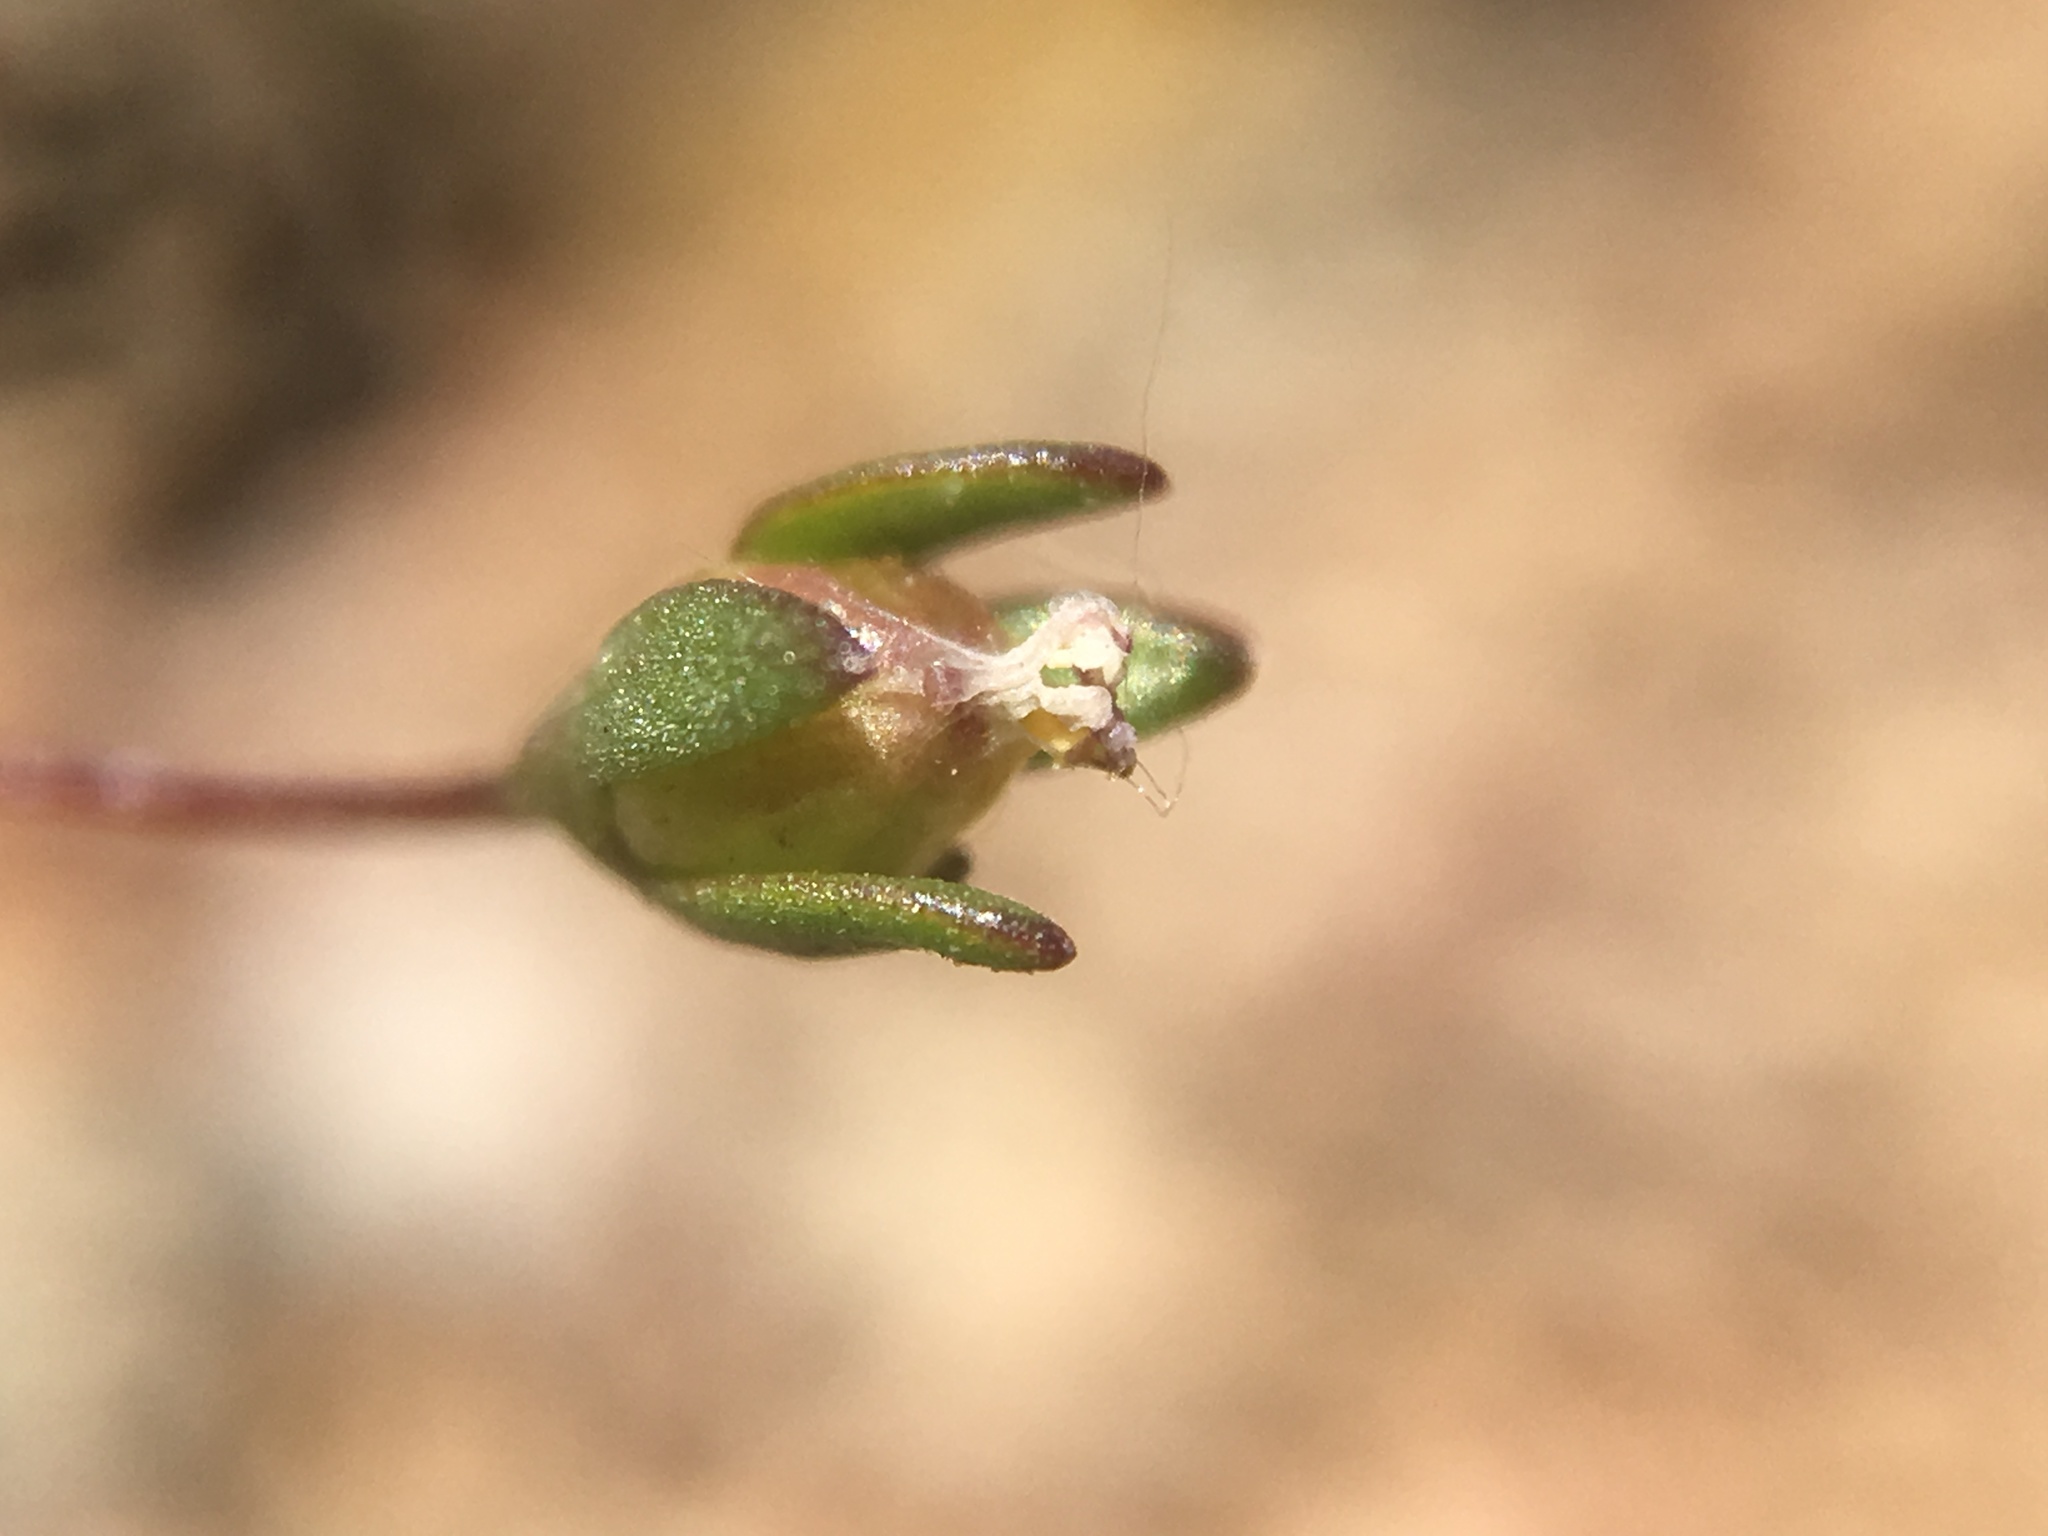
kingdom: Plantae
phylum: Tracheophyta
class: Magnoliopsida
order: Asterales
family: Campanulaceae
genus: Nemacladus
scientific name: Nemacladus sigmoideus
